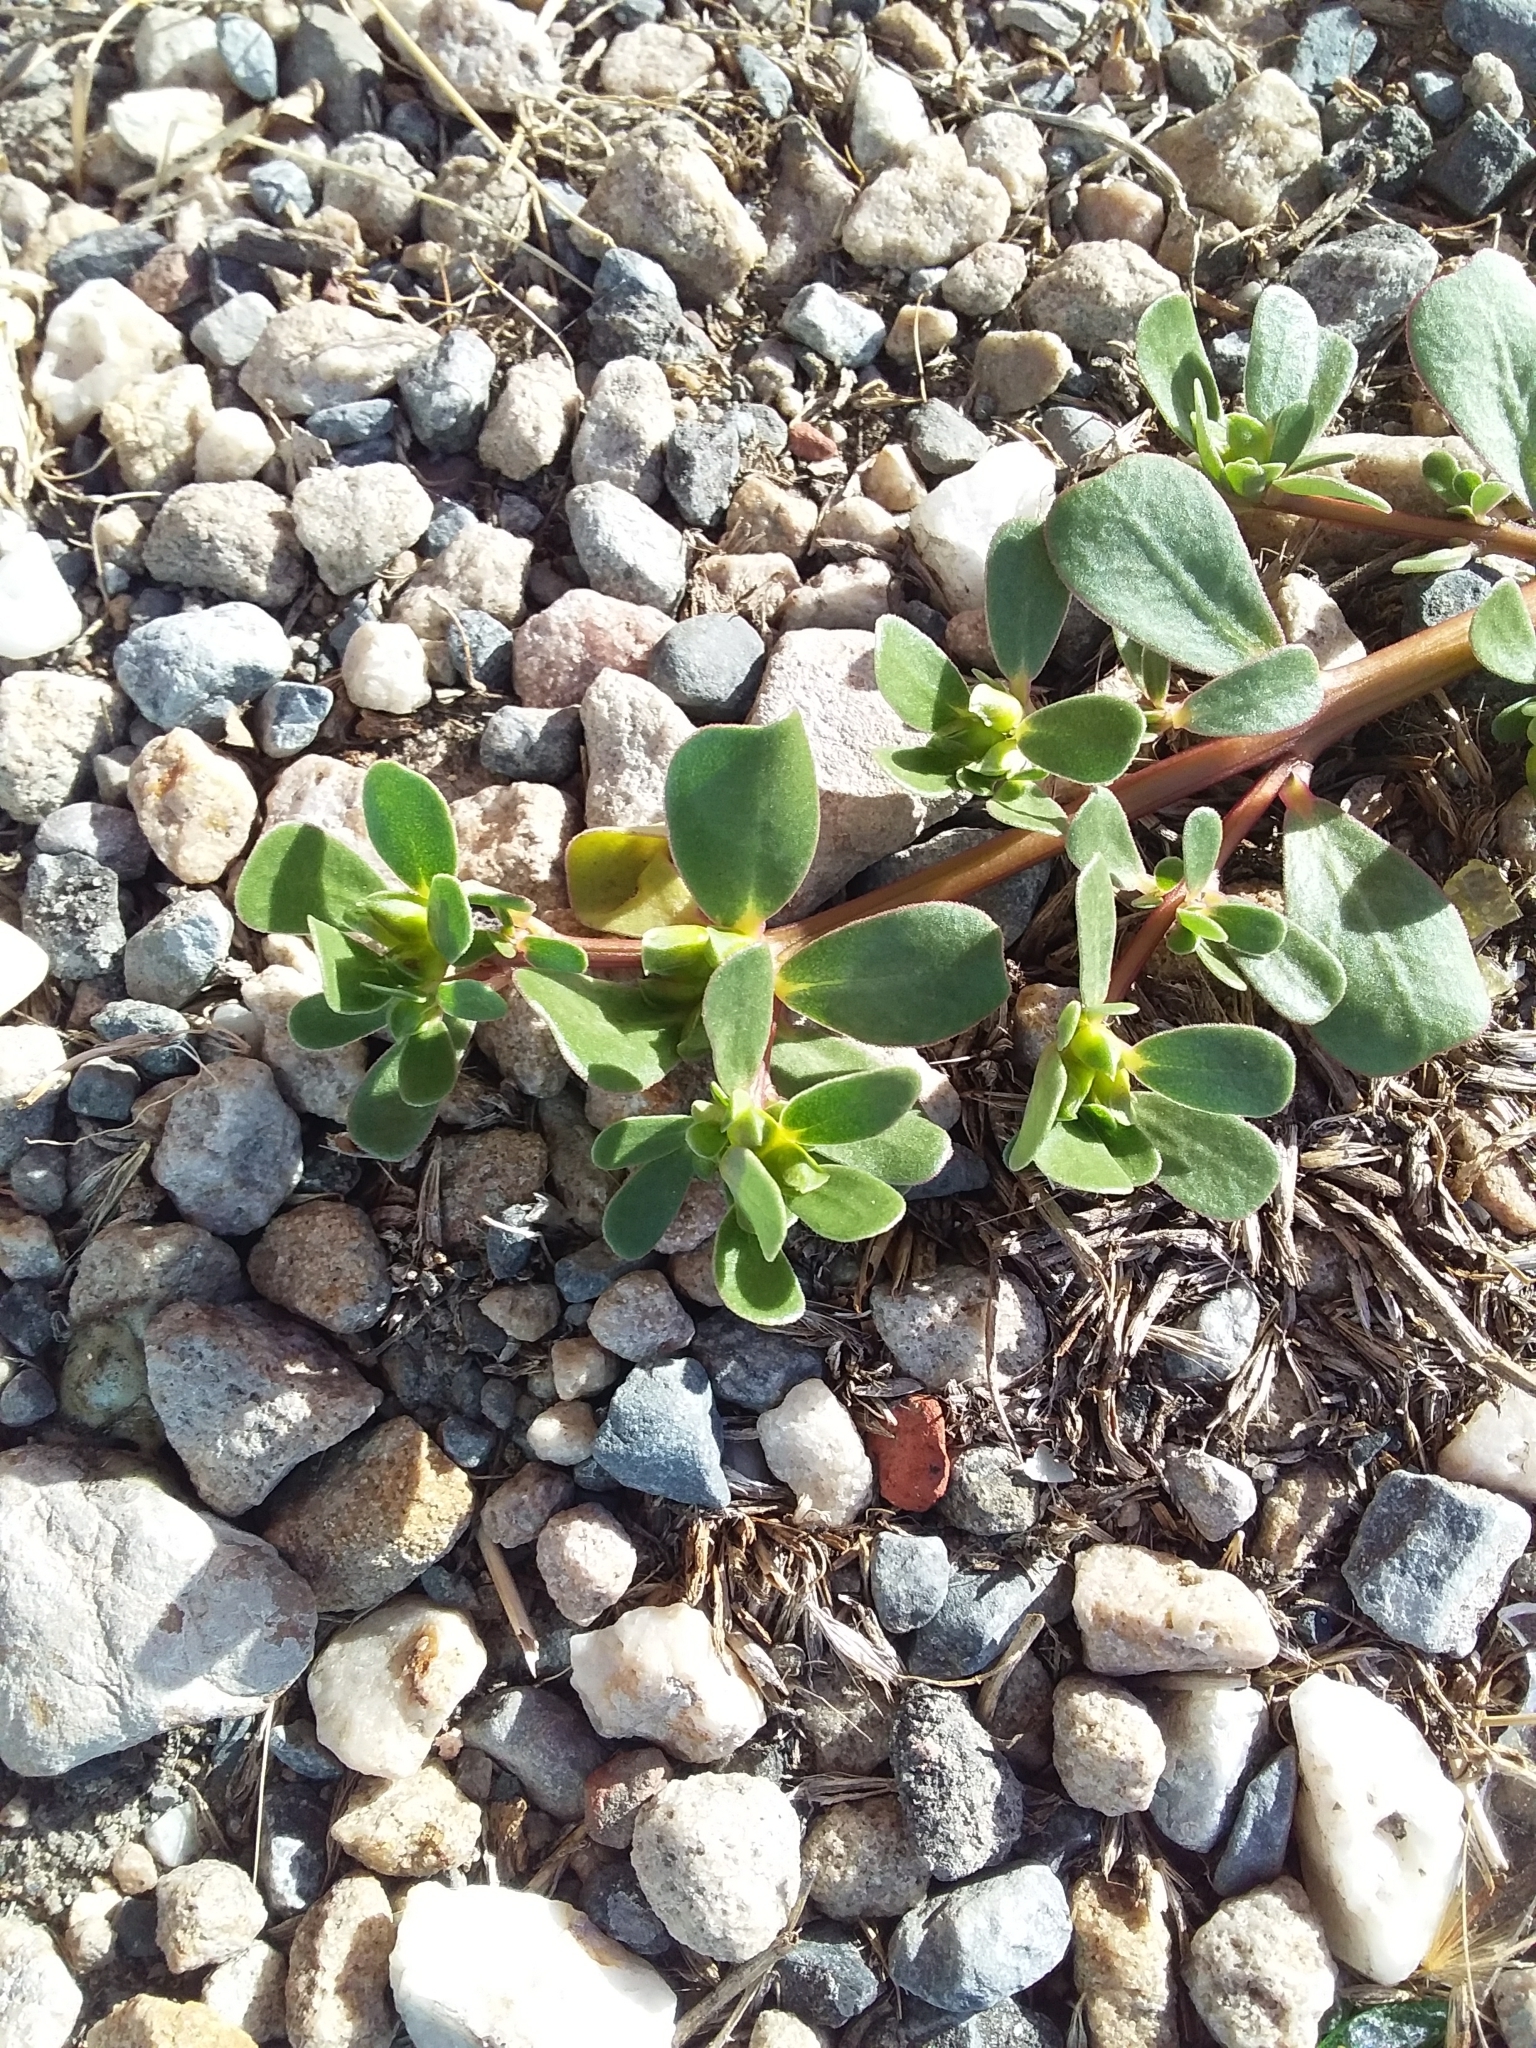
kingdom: Plantae
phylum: Tracheophyta
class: Magnoliopsida
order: Caryophyllales
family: Portulacaceae
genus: Portulaca
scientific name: Portulaca oleracea
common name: Common purslane
